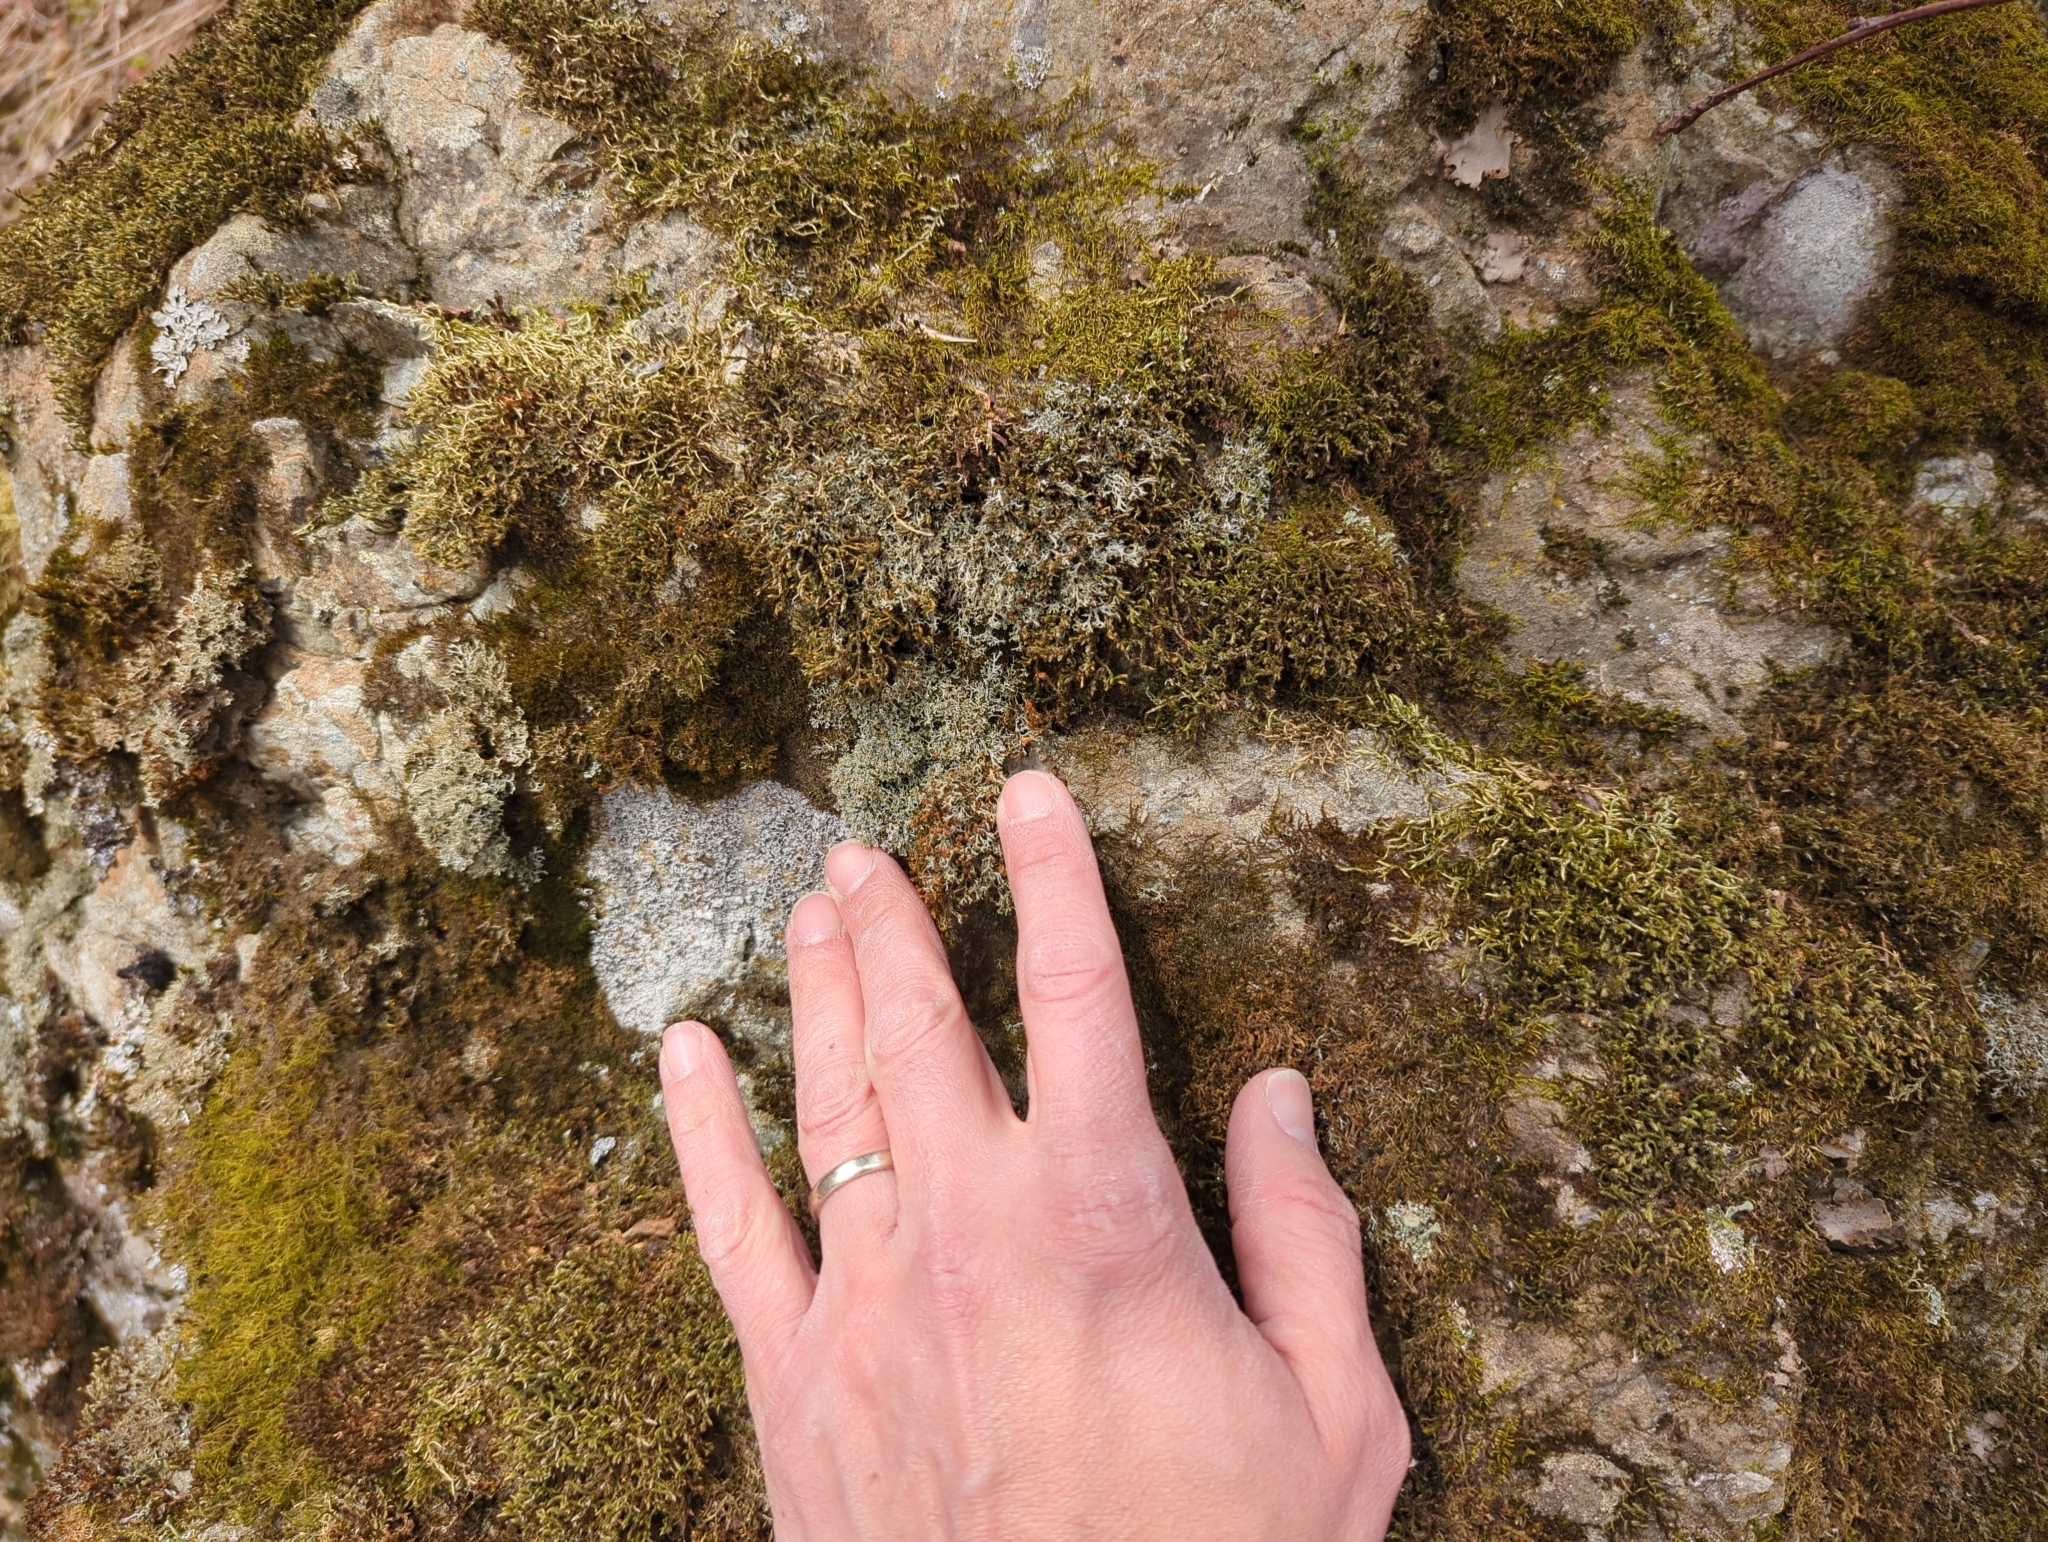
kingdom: Fungi
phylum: Ascomycota
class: Lecanoromycetes
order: Caliciales
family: Physciaceae
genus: Phaeophyscia
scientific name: Phaeophyscia constipata
